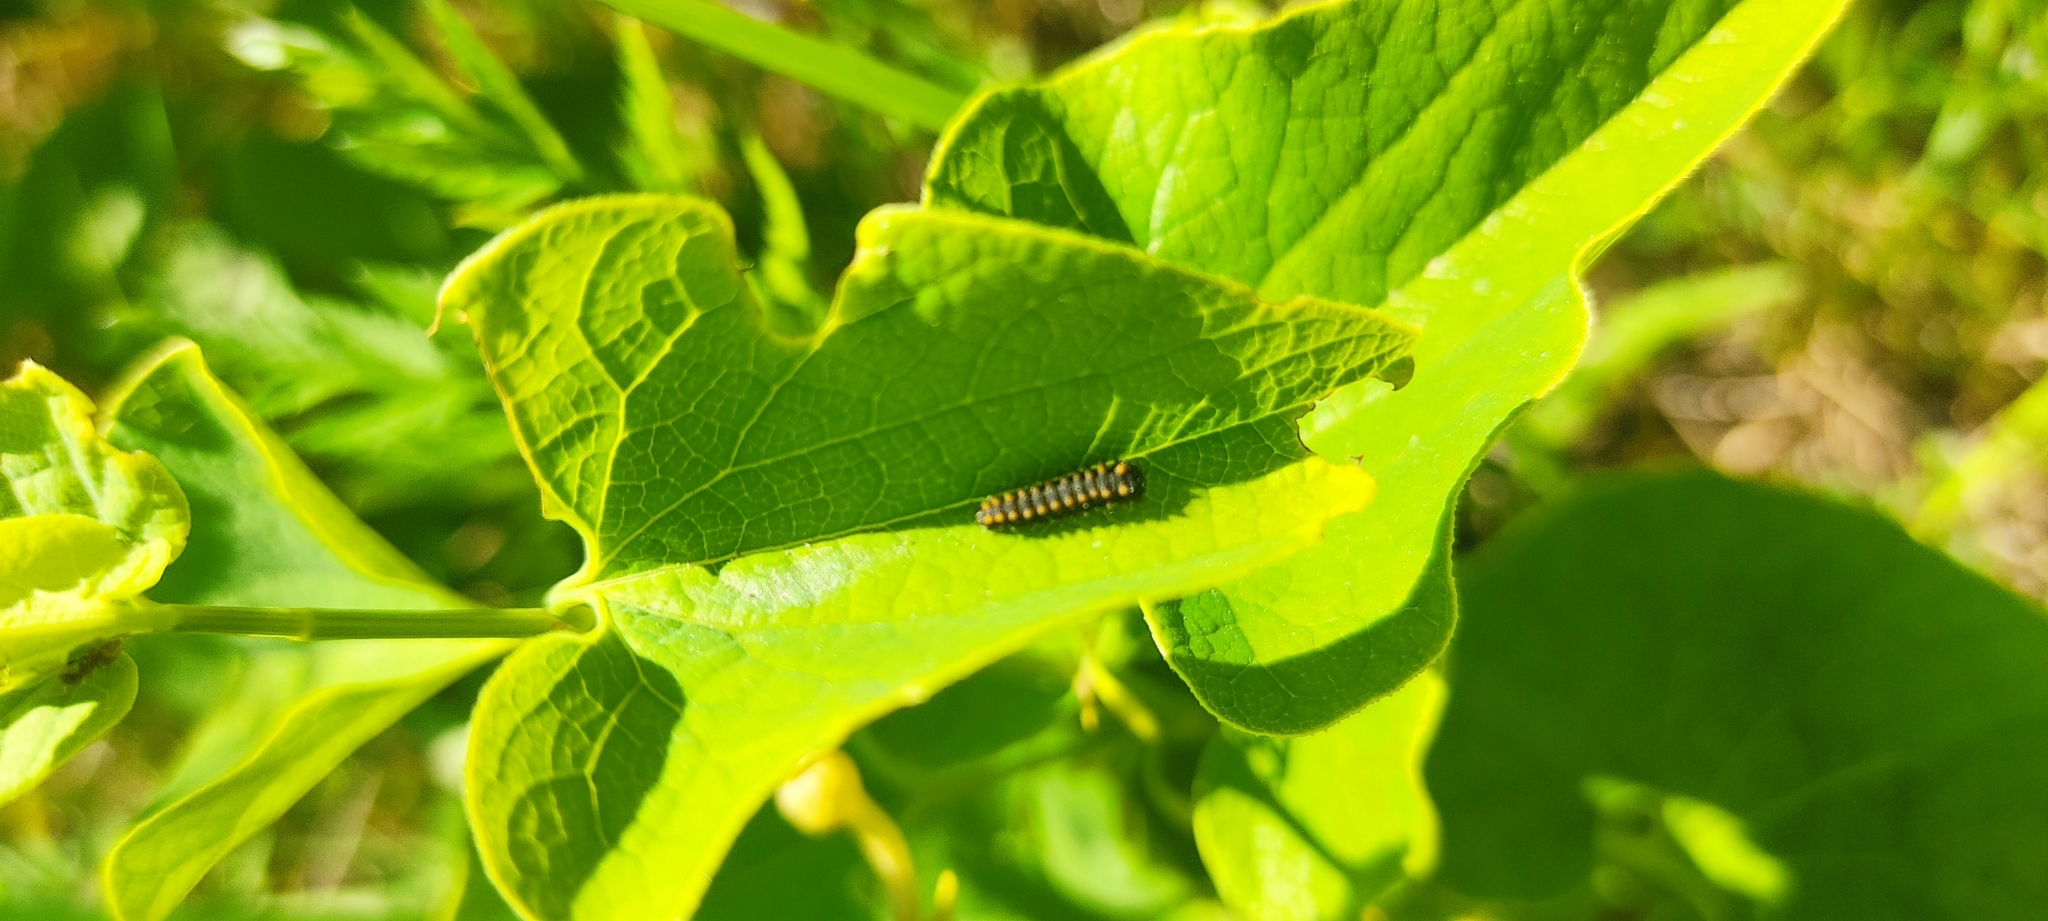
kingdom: Animalia
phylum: Arthropoda
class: Insecta
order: Lepidoptera
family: Papilionidae
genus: Zerynthia
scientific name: Zerynthia polyxena
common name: Southern festoon
